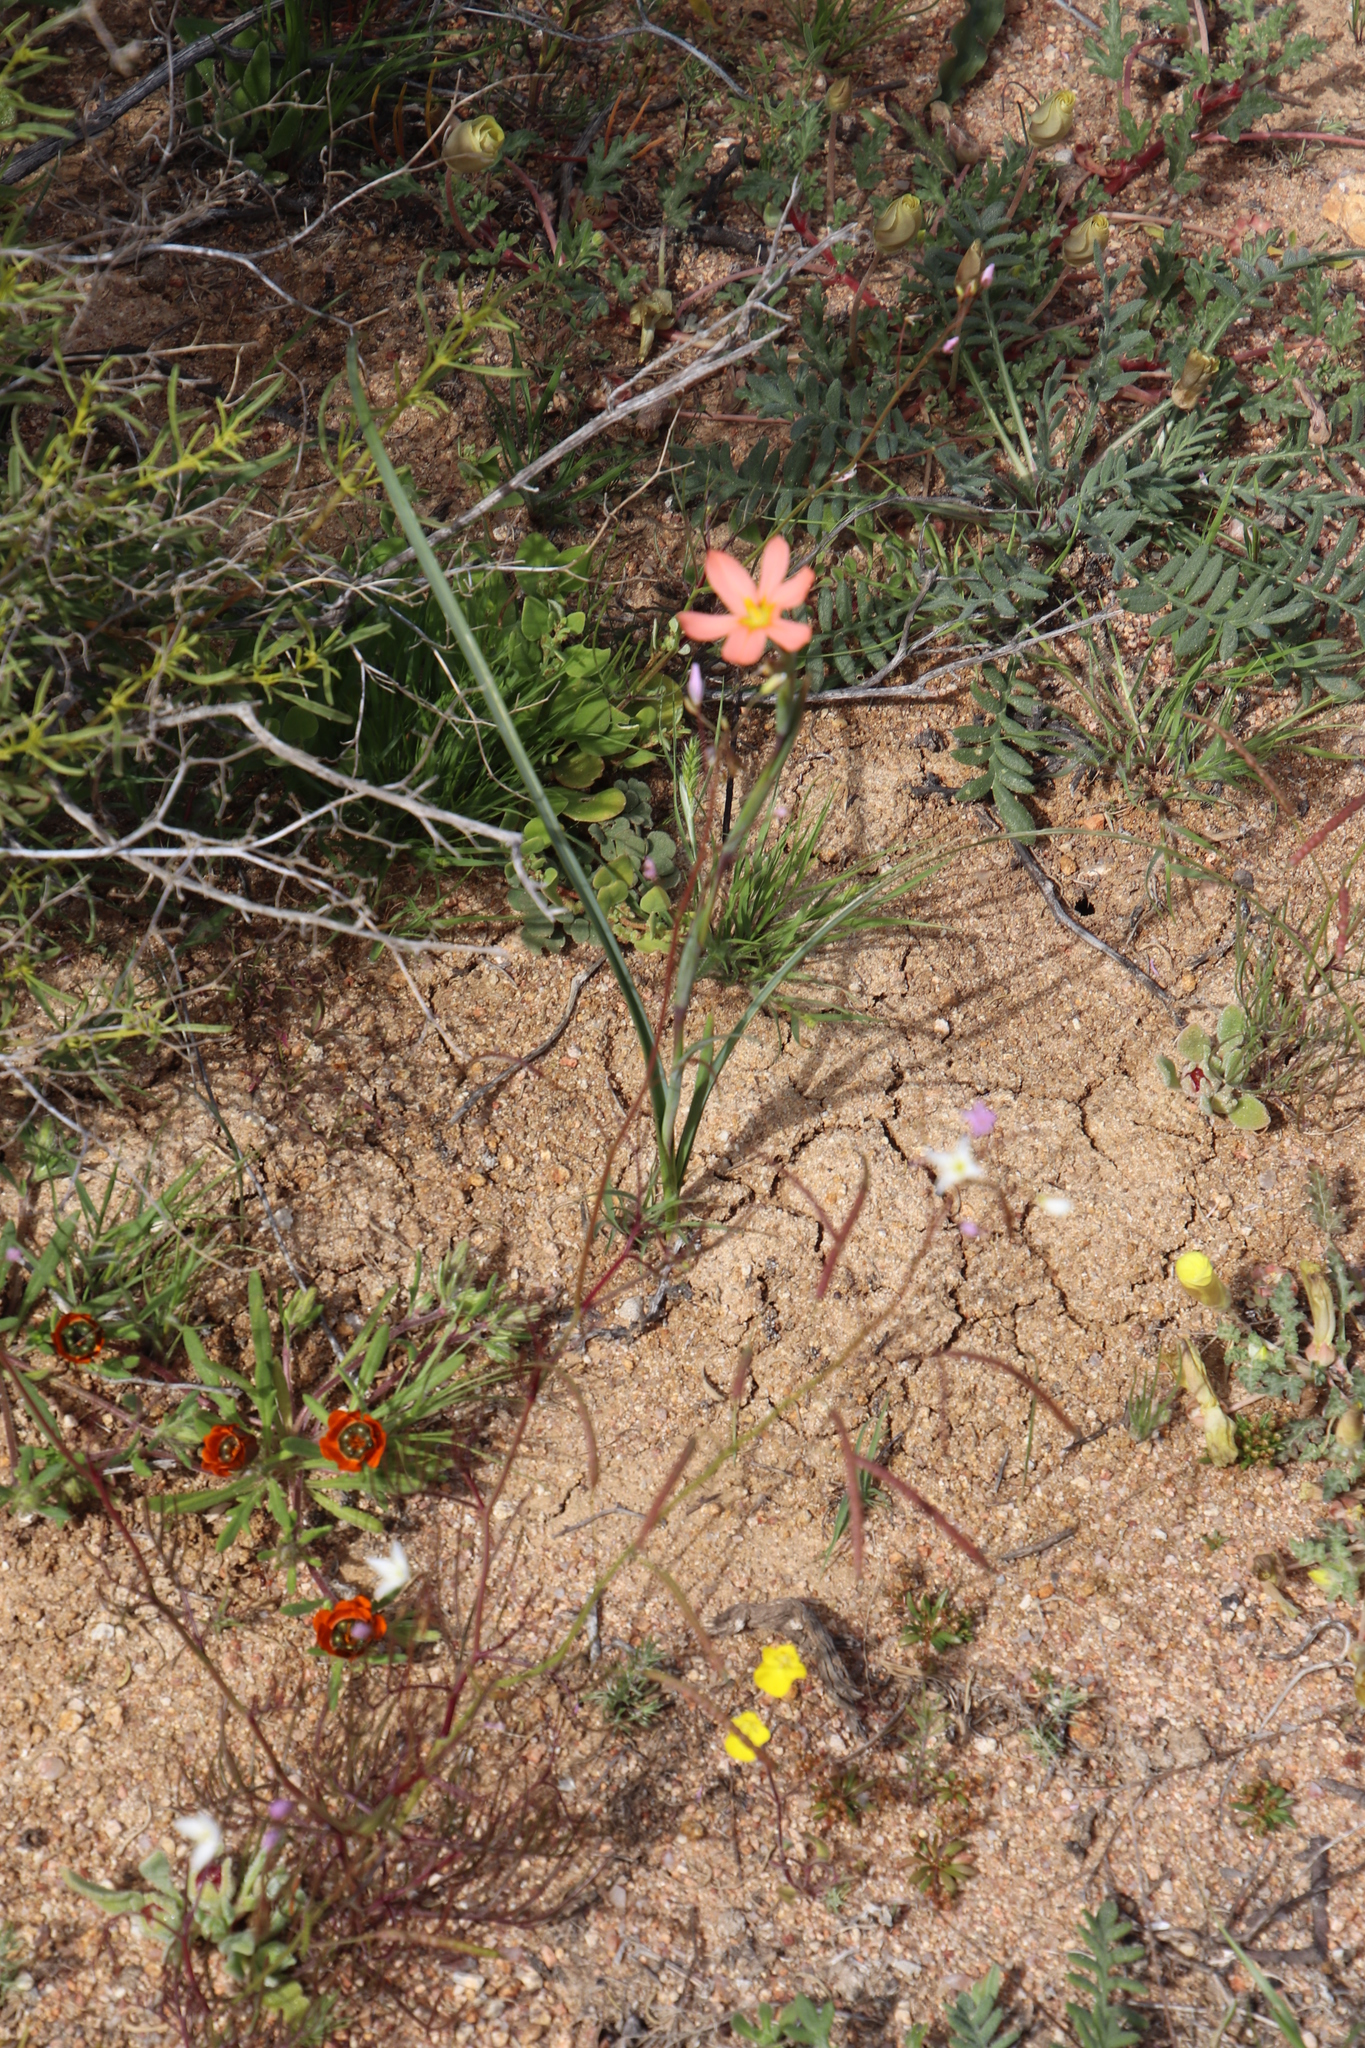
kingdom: Plantae
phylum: Tracheophyta
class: Liliopsida
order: Asparagales
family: Iridaceae
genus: Moraea
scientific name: Moraea miniata
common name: Two-leaf cape-tulip
